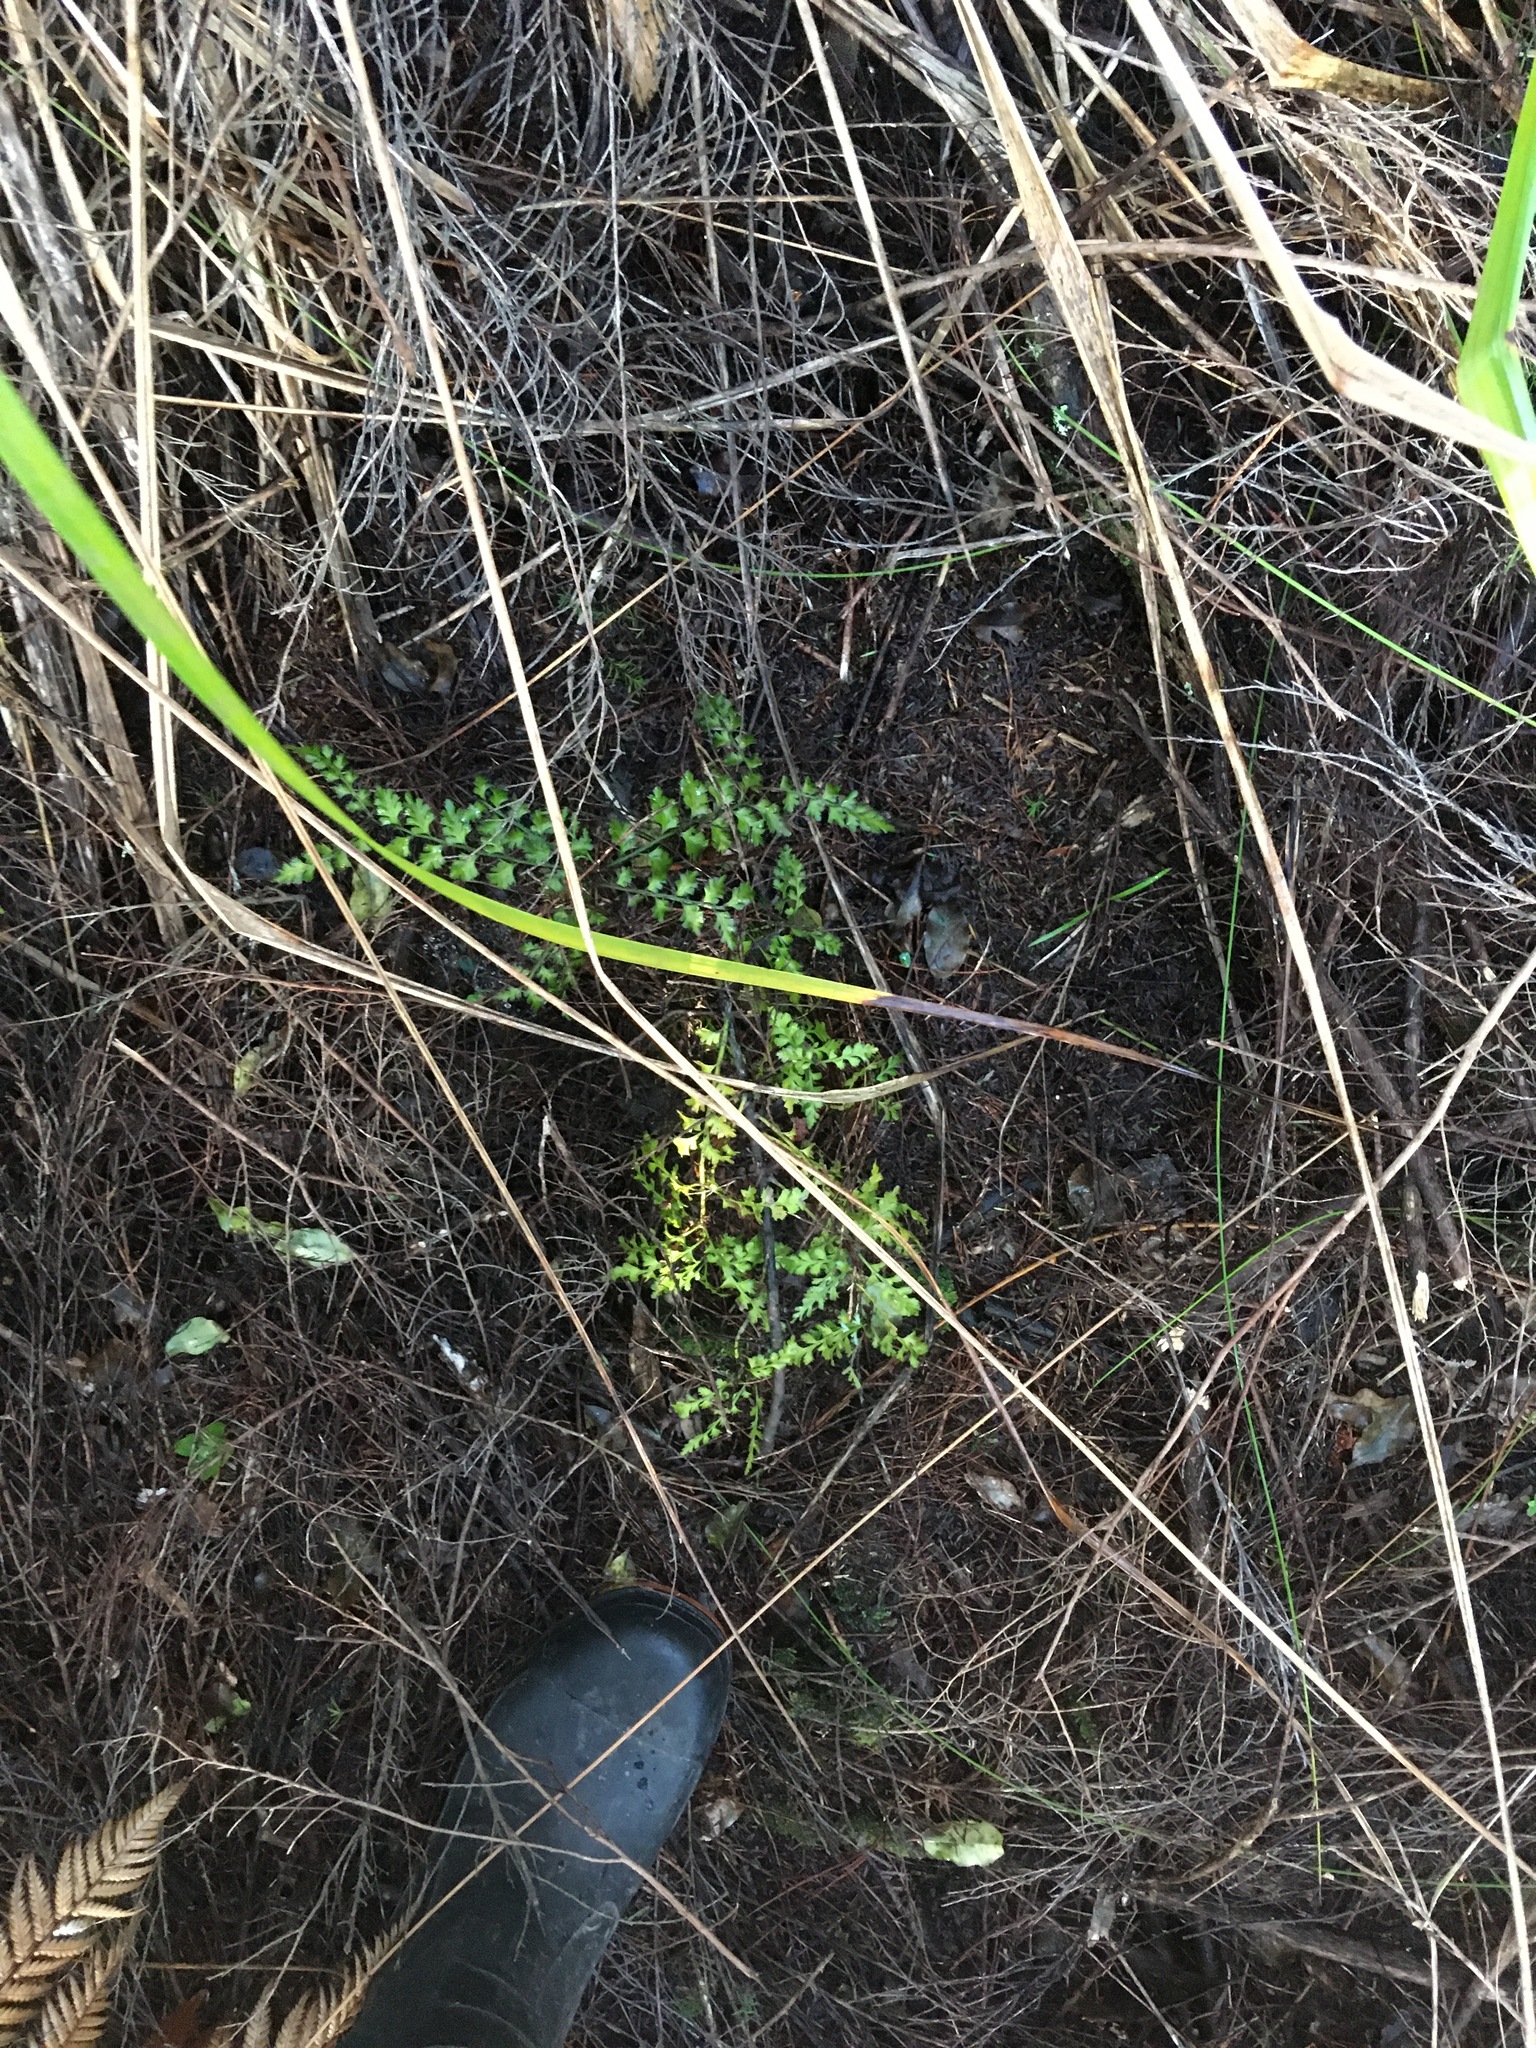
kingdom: Plantae
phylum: Tracheophyta
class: Pinopsida
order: Pinales
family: Phyllocladaceae
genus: Phyllocladus
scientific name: Phyllocladus trichomanoides
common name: Celery pine
